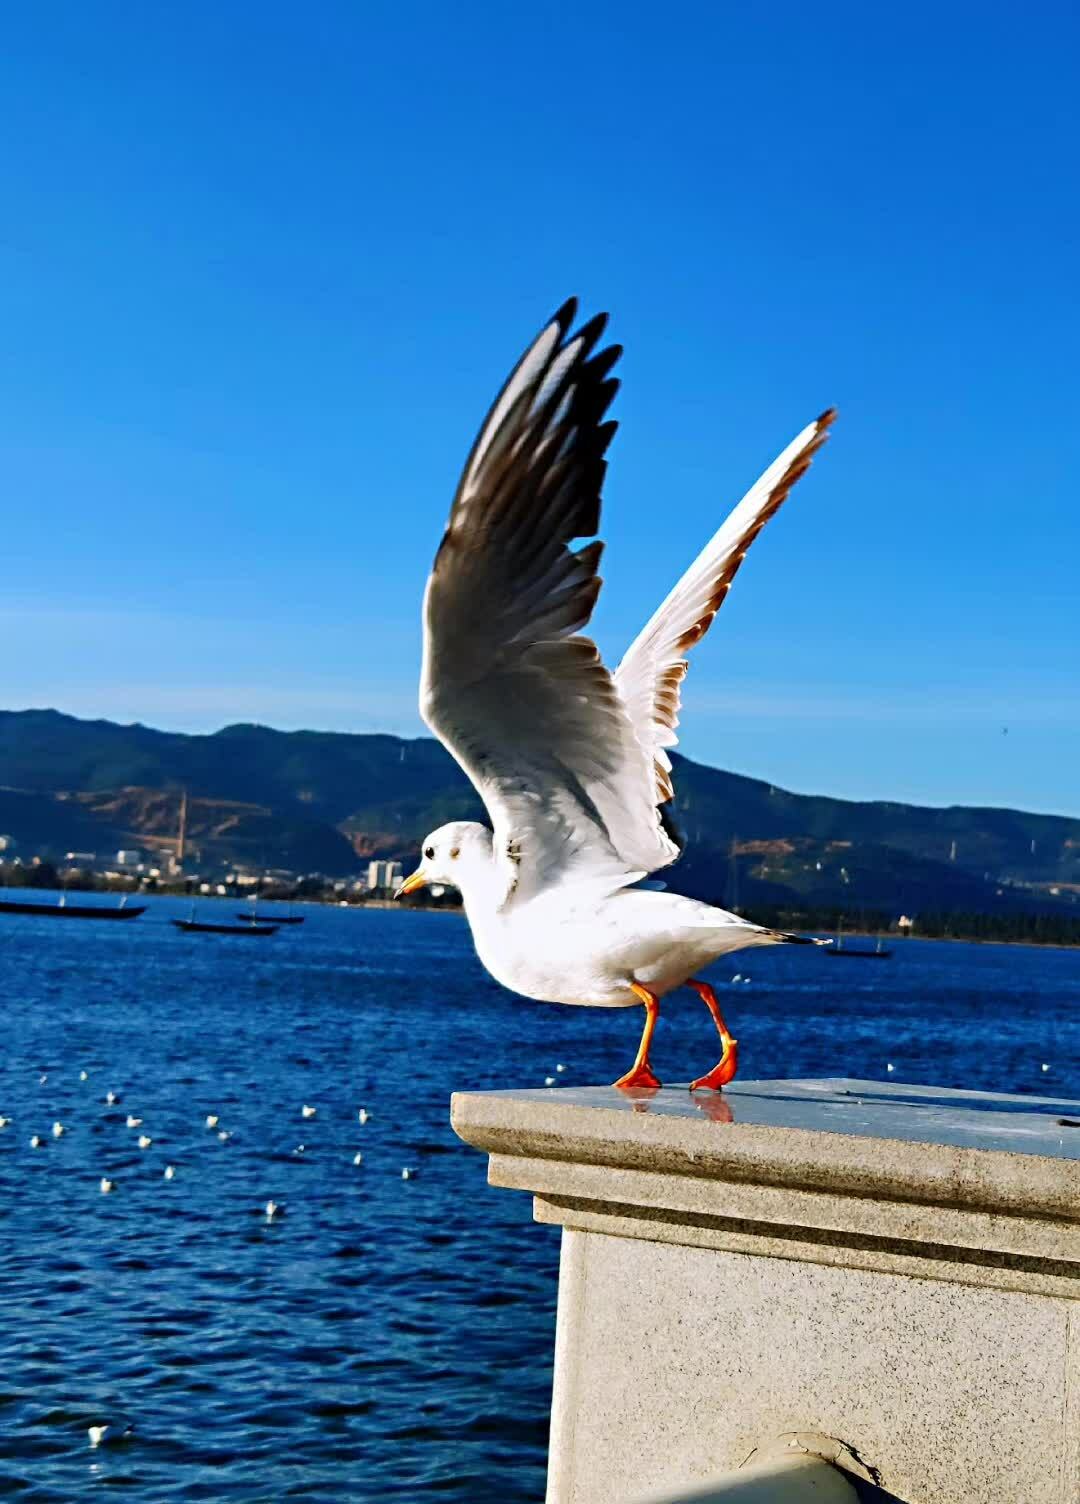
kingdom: Animalia
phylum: Chordata
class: Aves
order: Charadriiformes
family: Laridae
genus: Chroicocephalus
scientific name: Chroicocephalus ridibundus
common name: Black-headed gull
